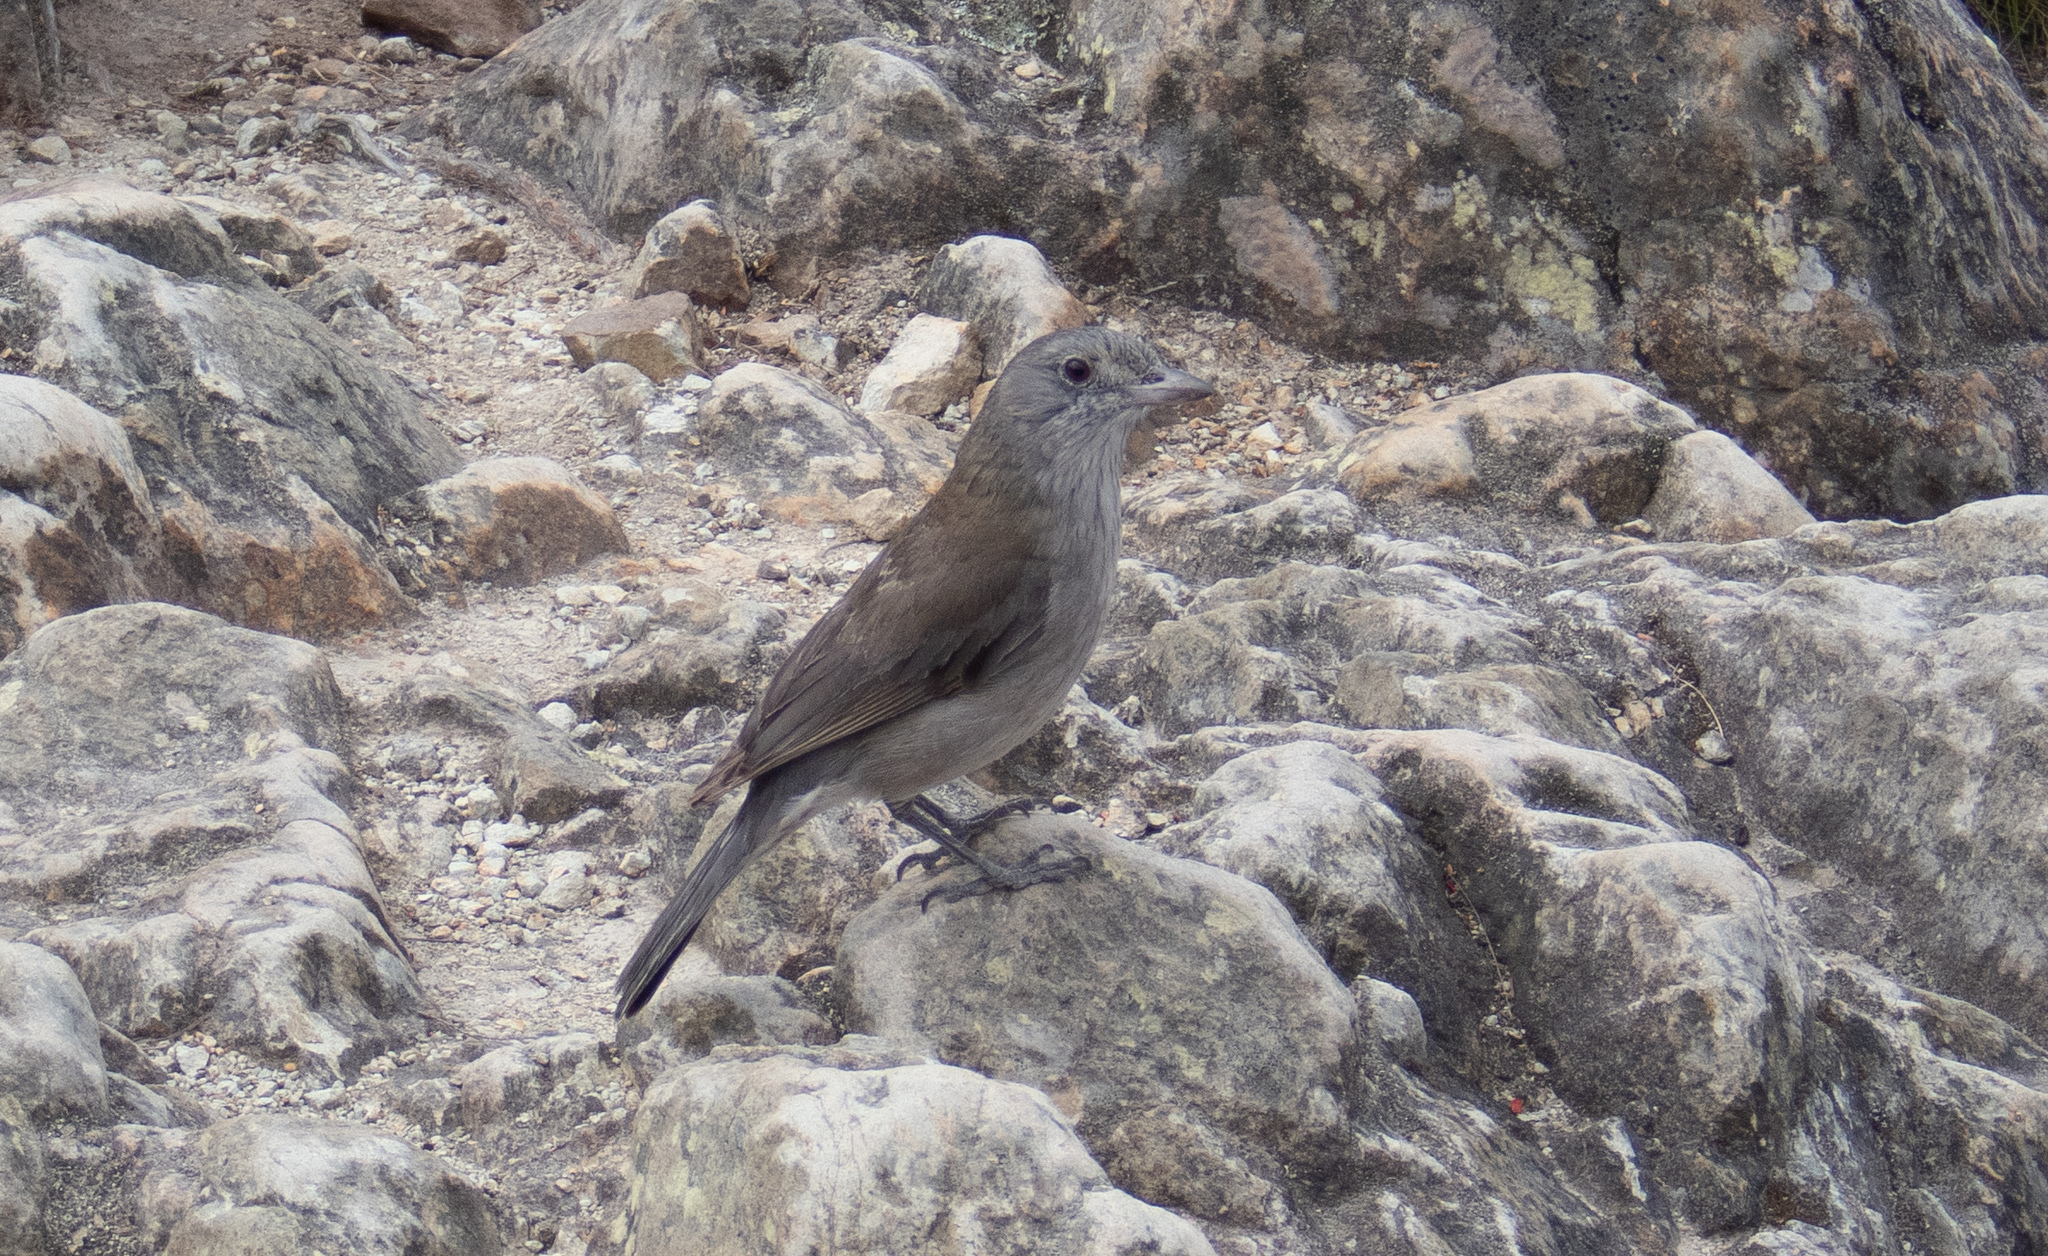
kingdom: Animalia
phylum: Chordata
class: Aves
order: Passeriformes
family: Pachycephalidae
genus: Colluricincla
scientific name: Colluricincla harmonica
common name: Grey shrikethrush
